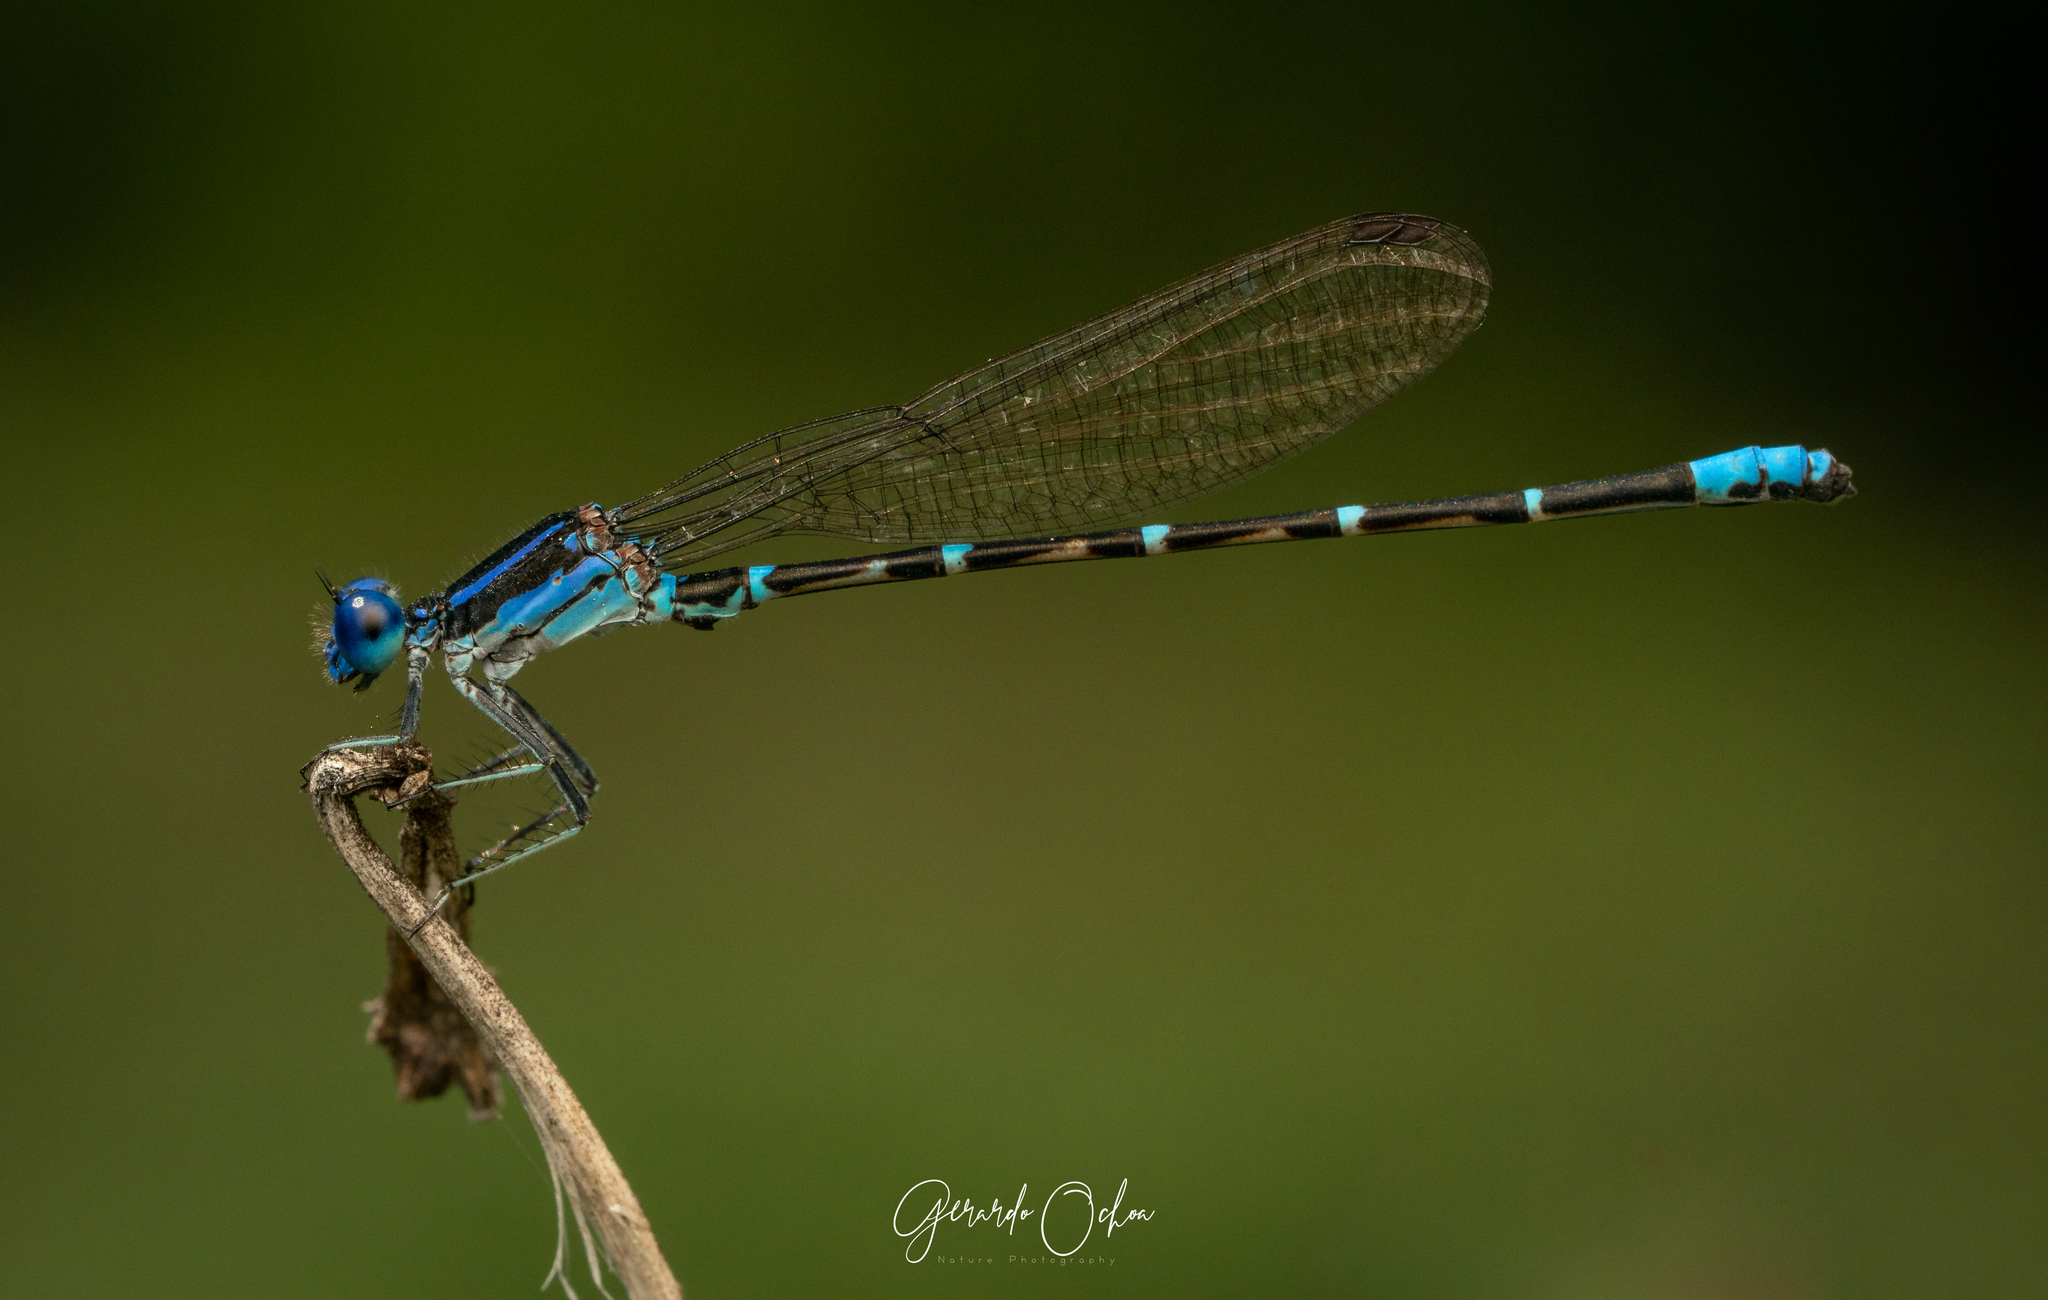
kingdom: Animalia
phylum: Arthropoda
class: Insecta
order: Odonata
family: Coenagrionidae
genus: Argia
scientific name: Argia sedula
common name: Blue-ringed dancer
